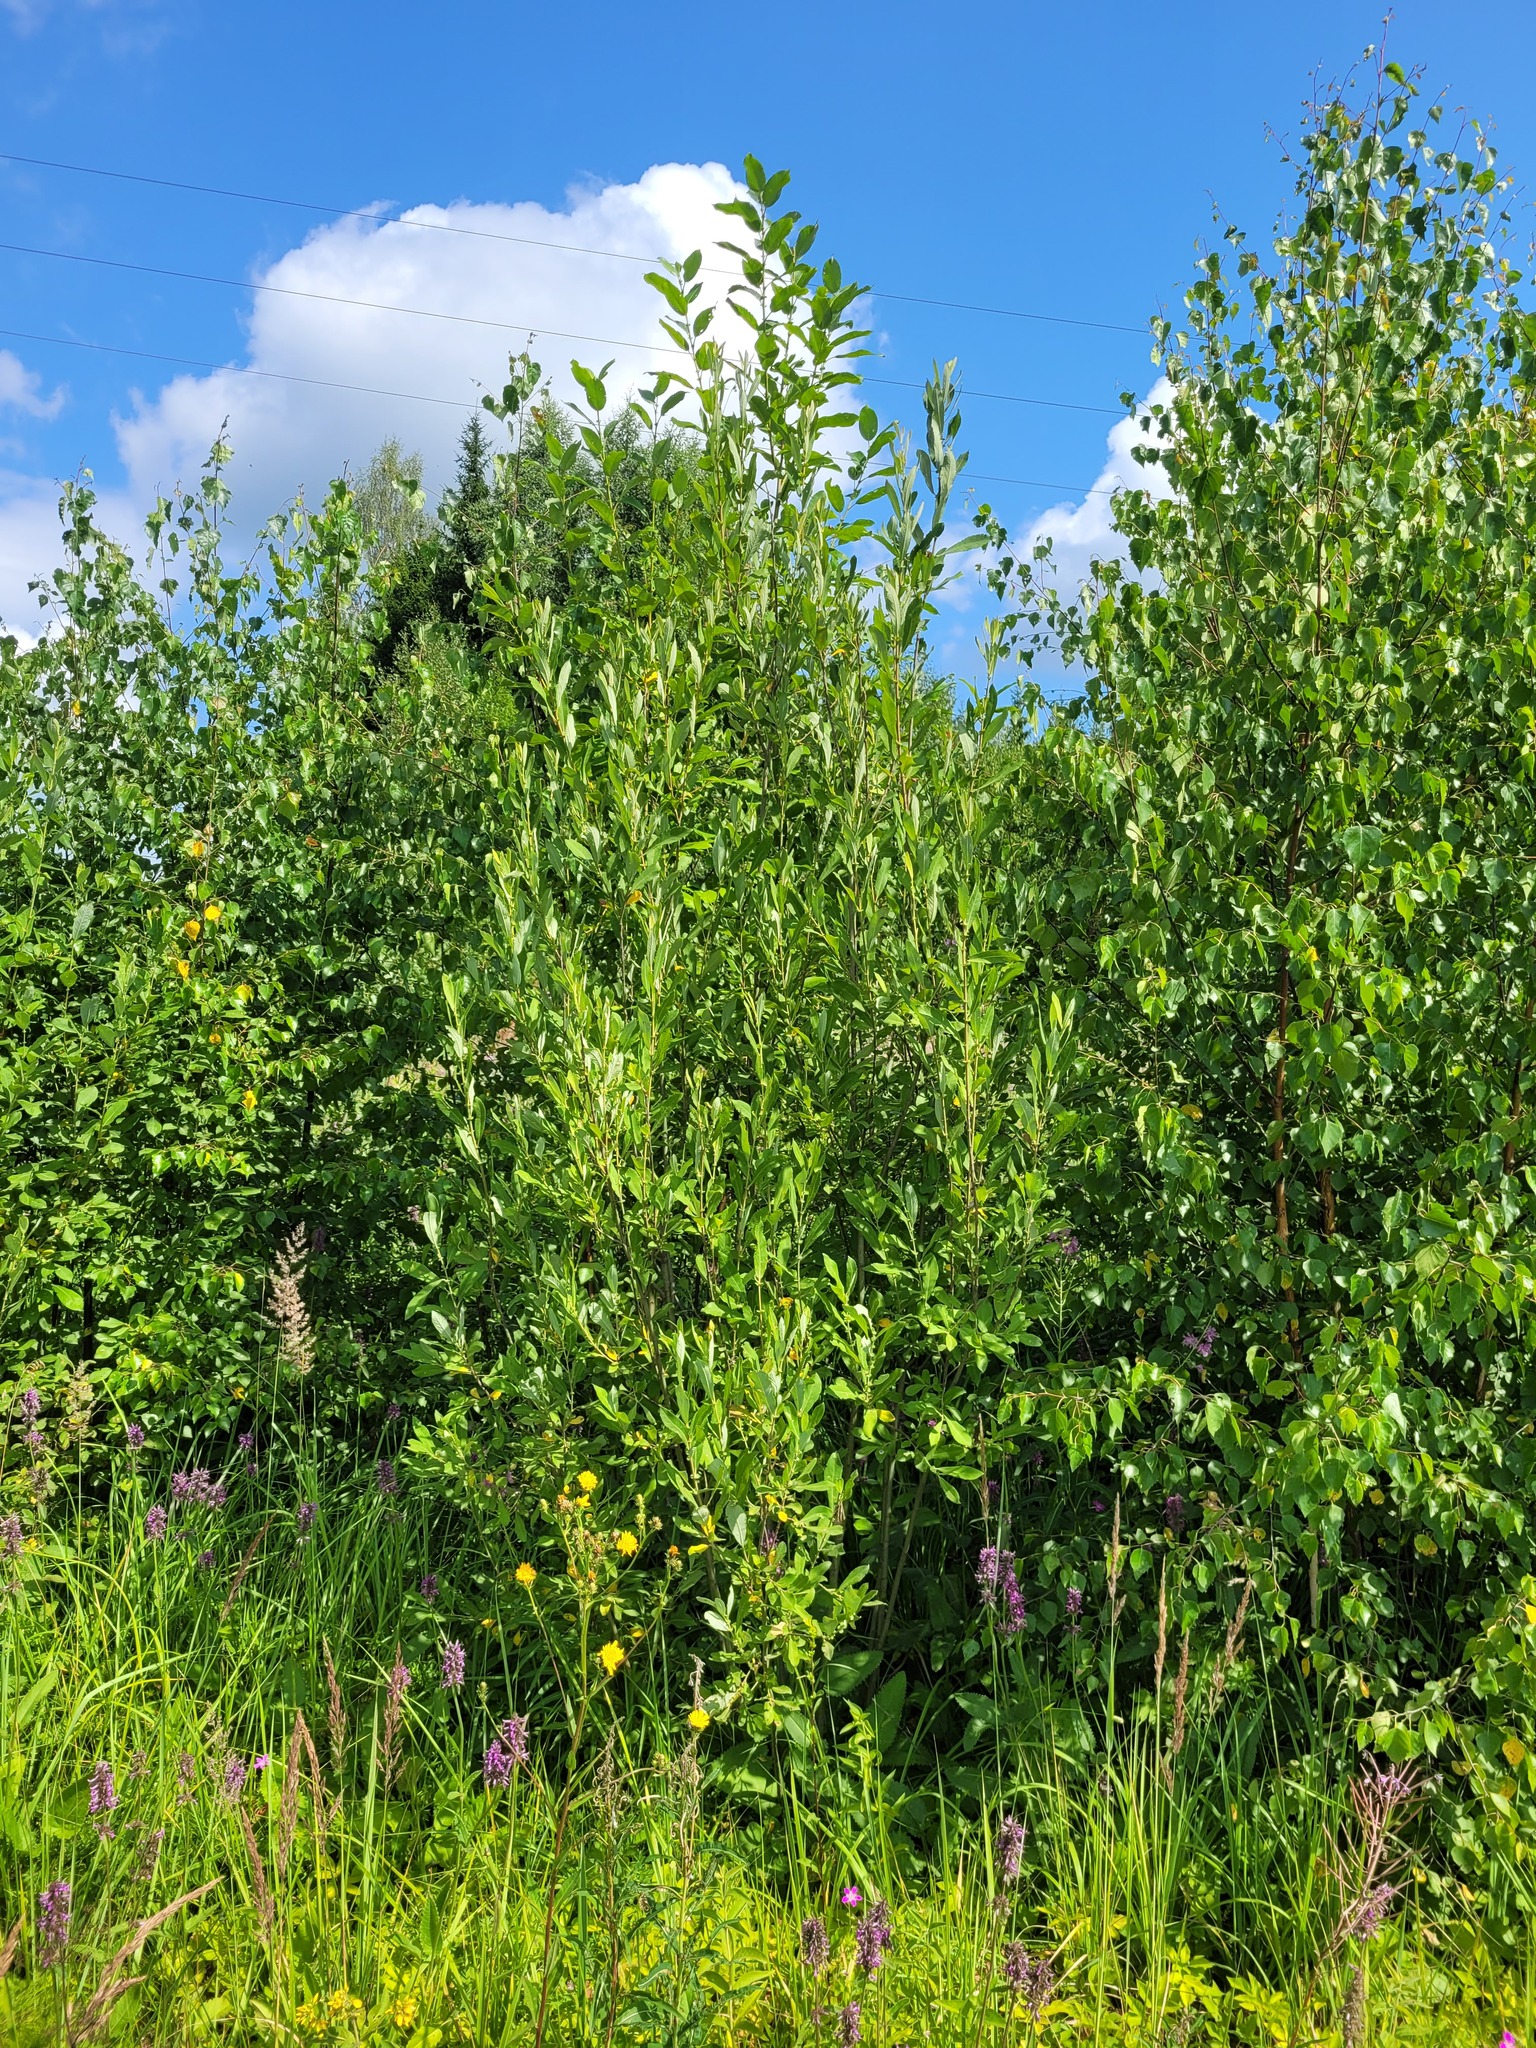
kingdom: Plantae
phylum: Tracheophyta
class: Magnoliopsida
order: Malpighiales
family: Salicaceae
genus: Salix
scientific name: Salix cinerea
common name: Common sallow
